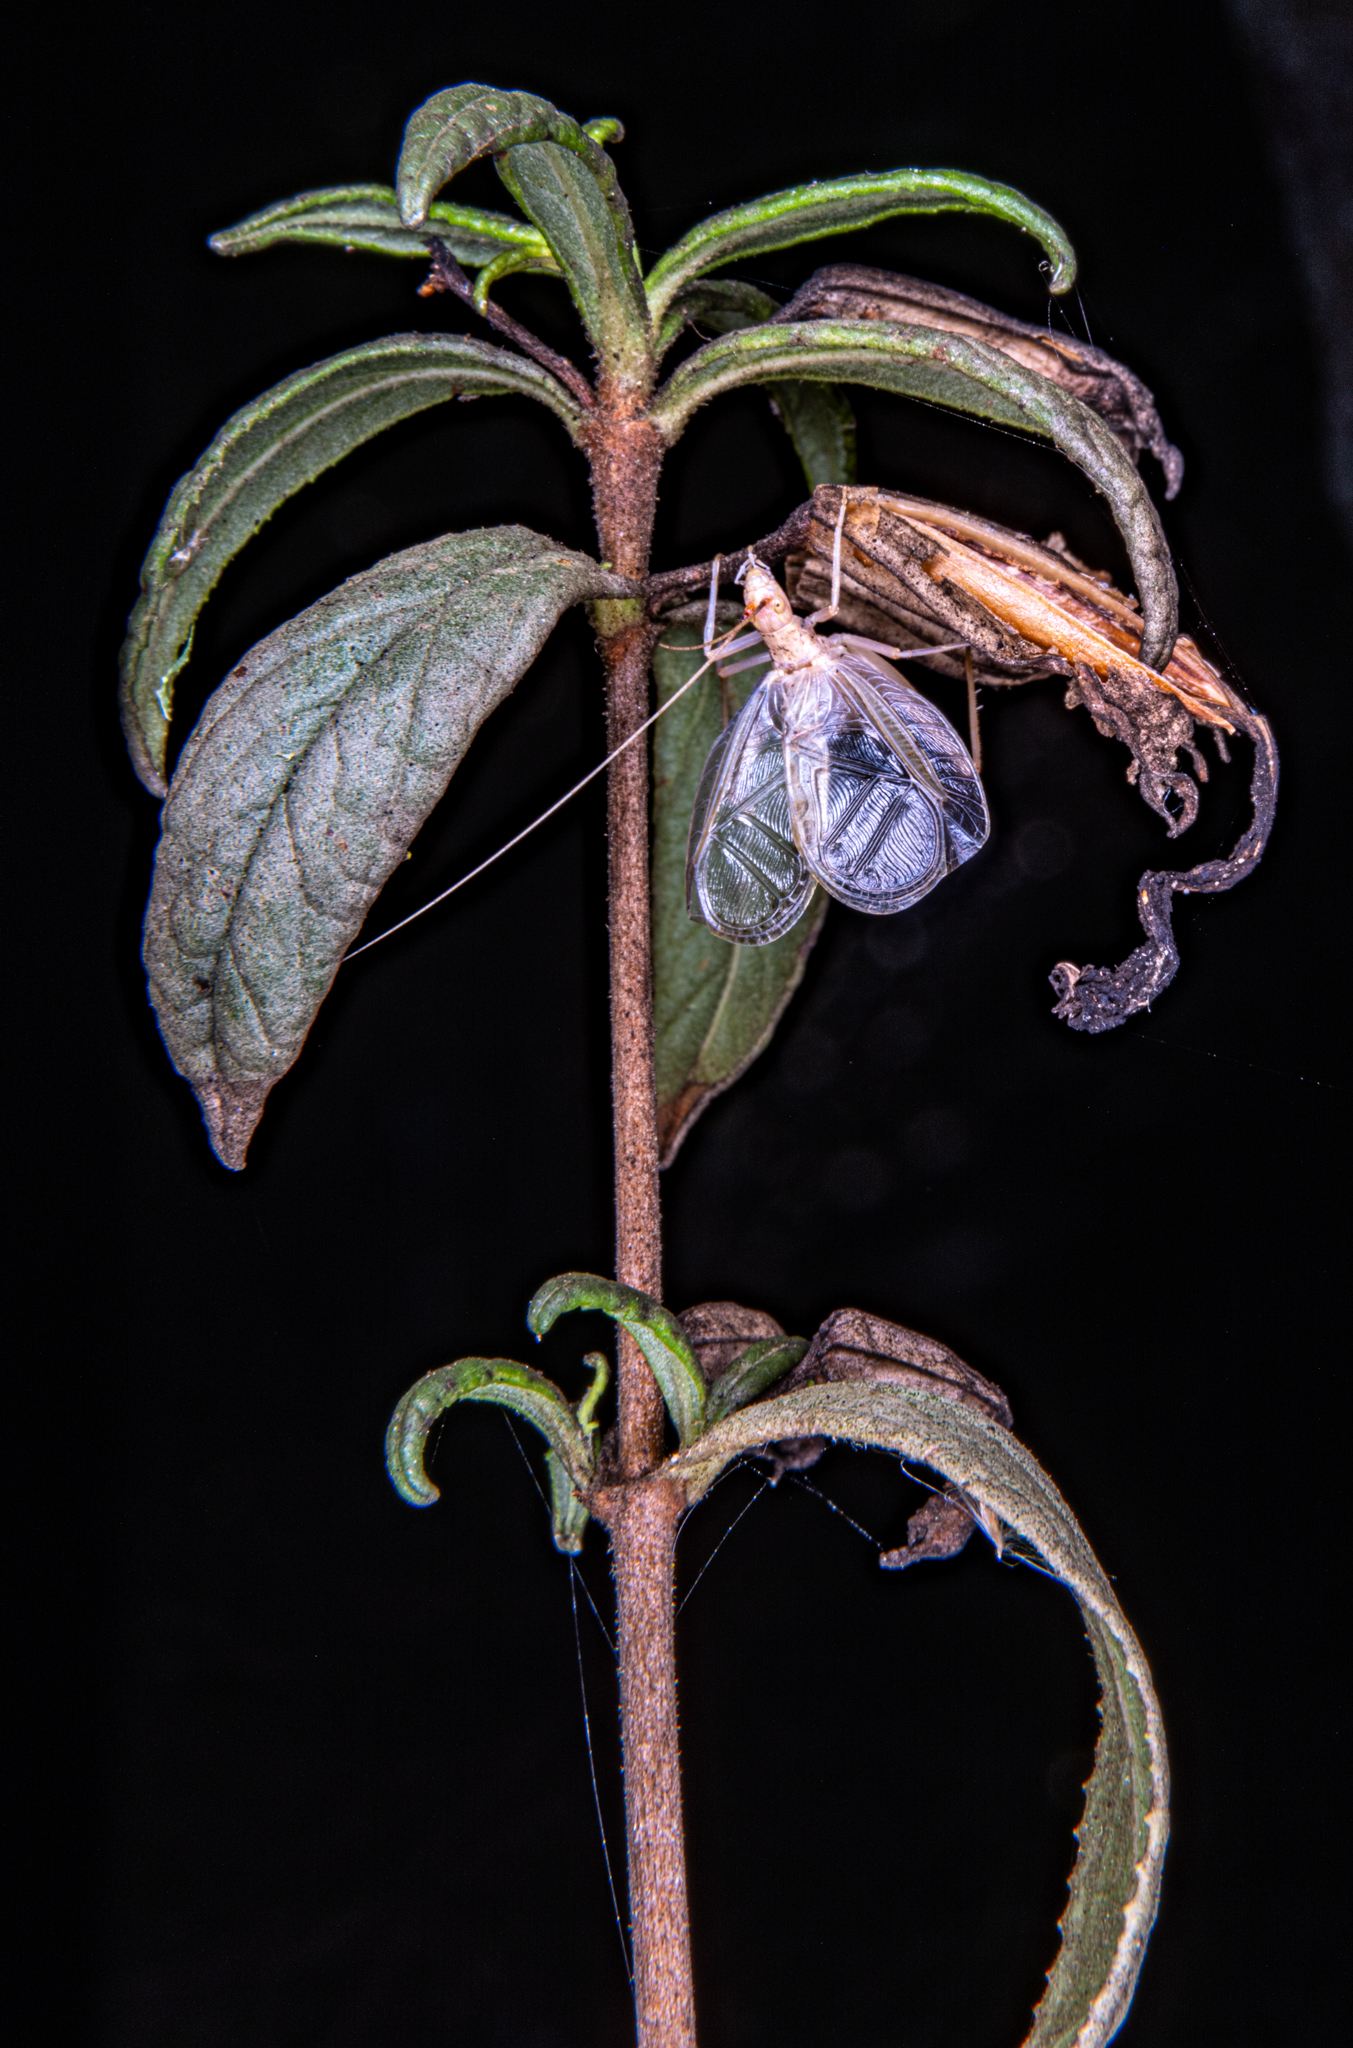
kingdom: Animalia
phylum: Arthropoda
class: Insecta
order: Orthoptera
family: Gryllidae
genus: Oecanthus
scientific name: Oecanthus californicus
